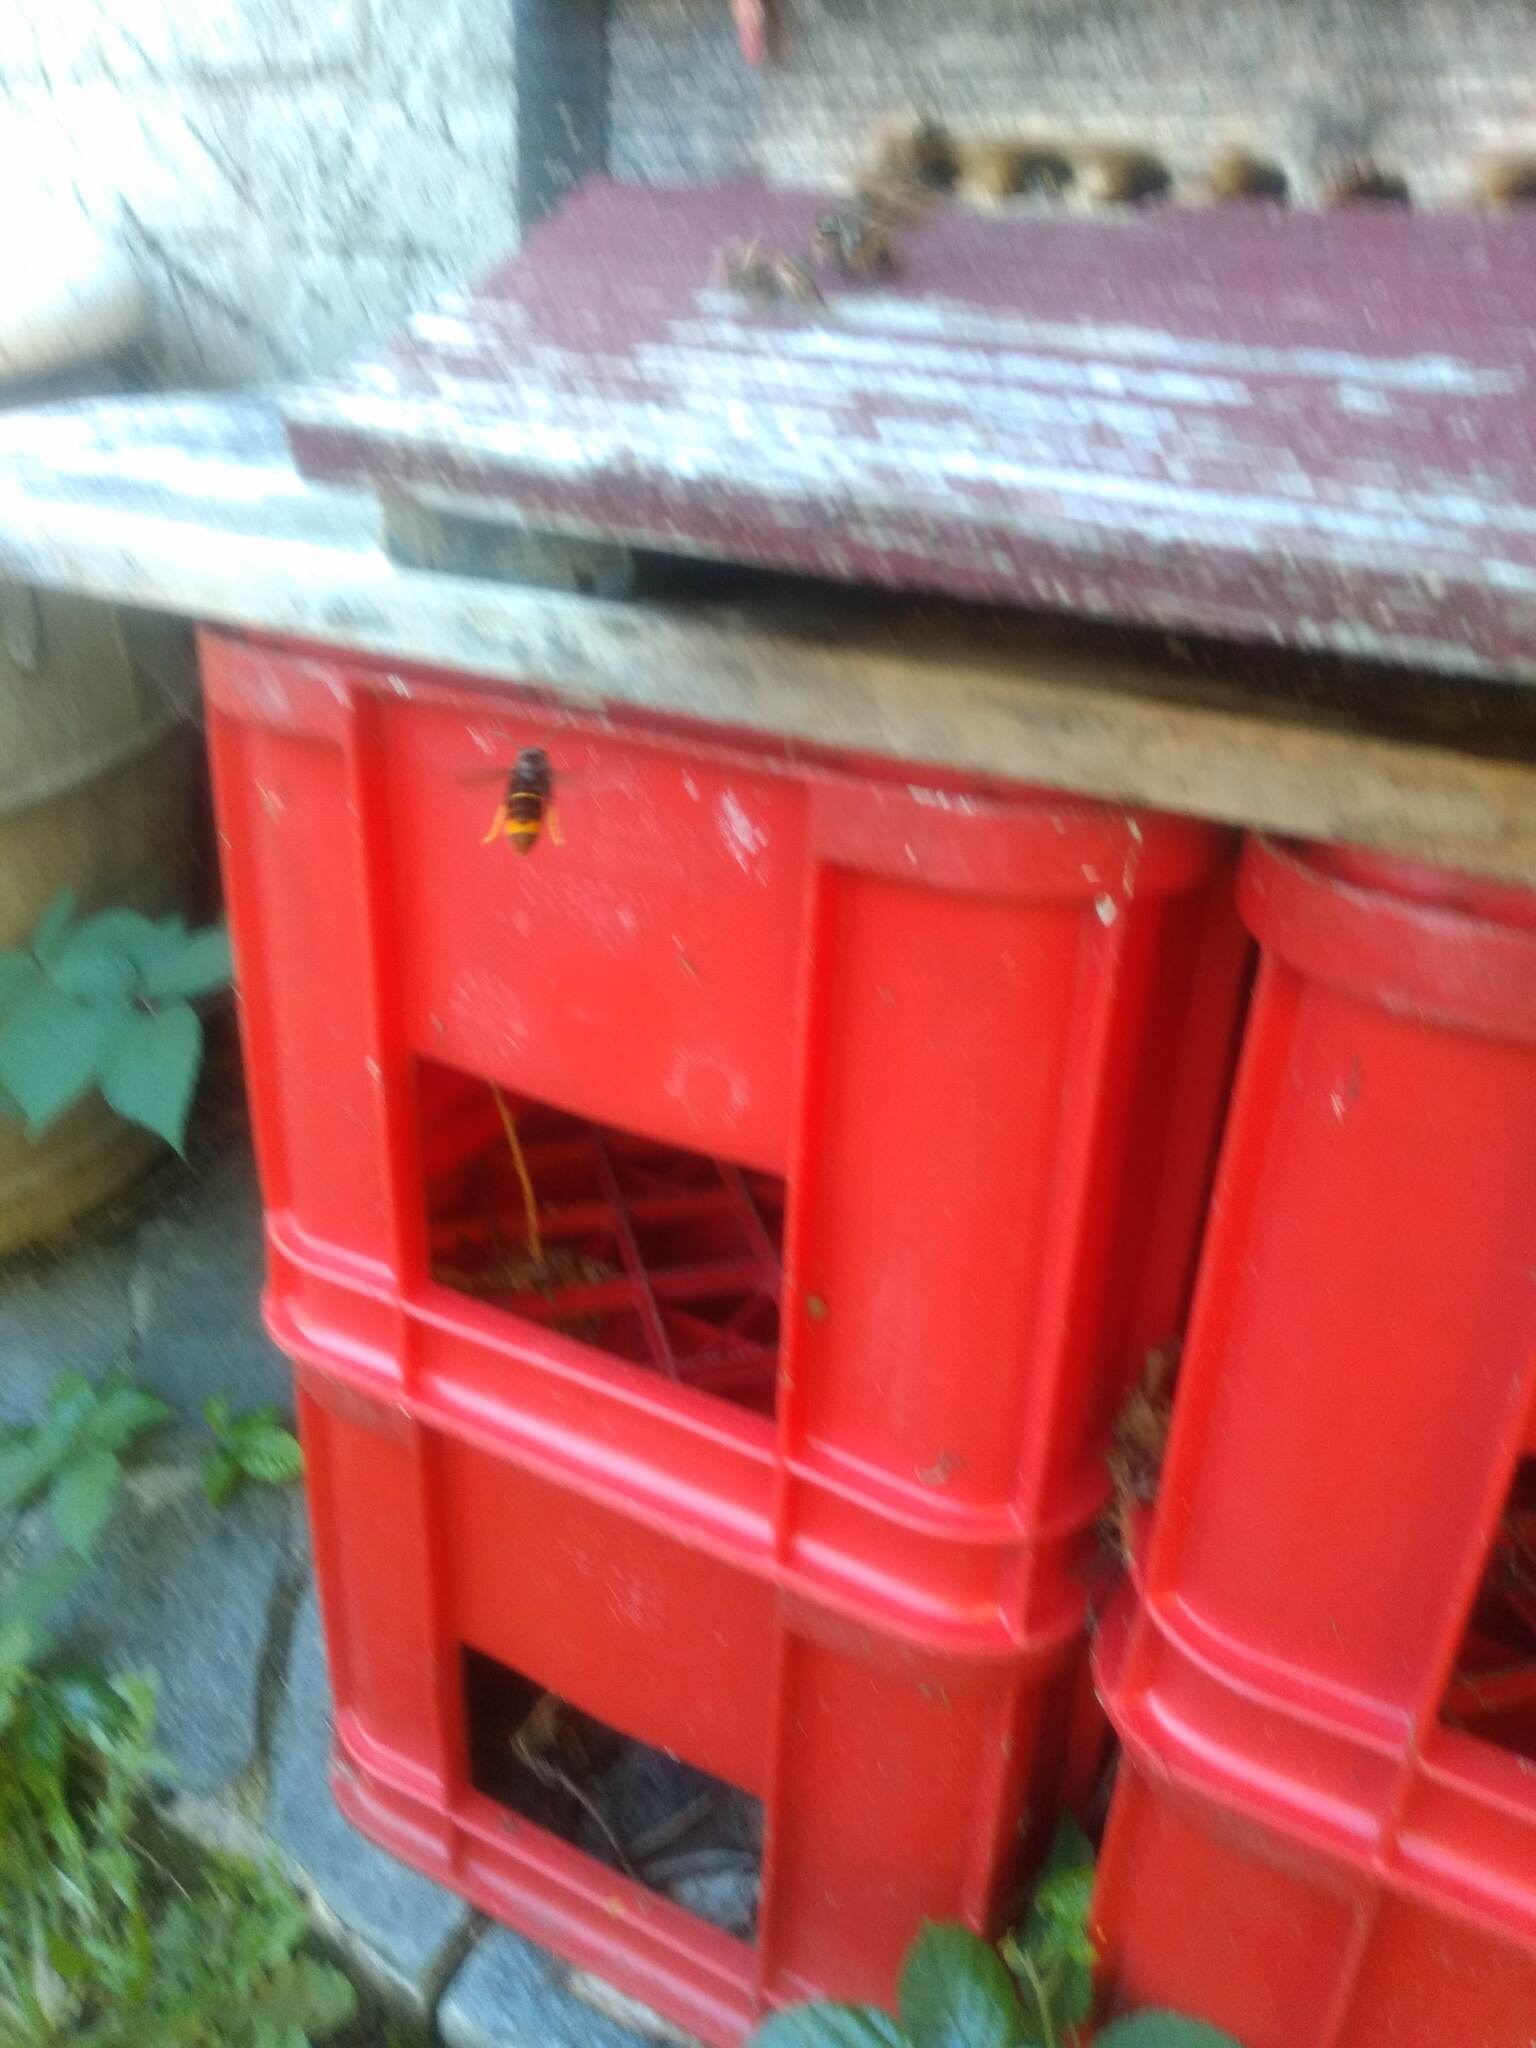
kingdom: Animalia
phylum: Arthropoda
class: Insecta
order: Hymenoptera
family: Vespidae
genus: Vespa
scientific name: Vespa velutina
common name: Asian hornet
